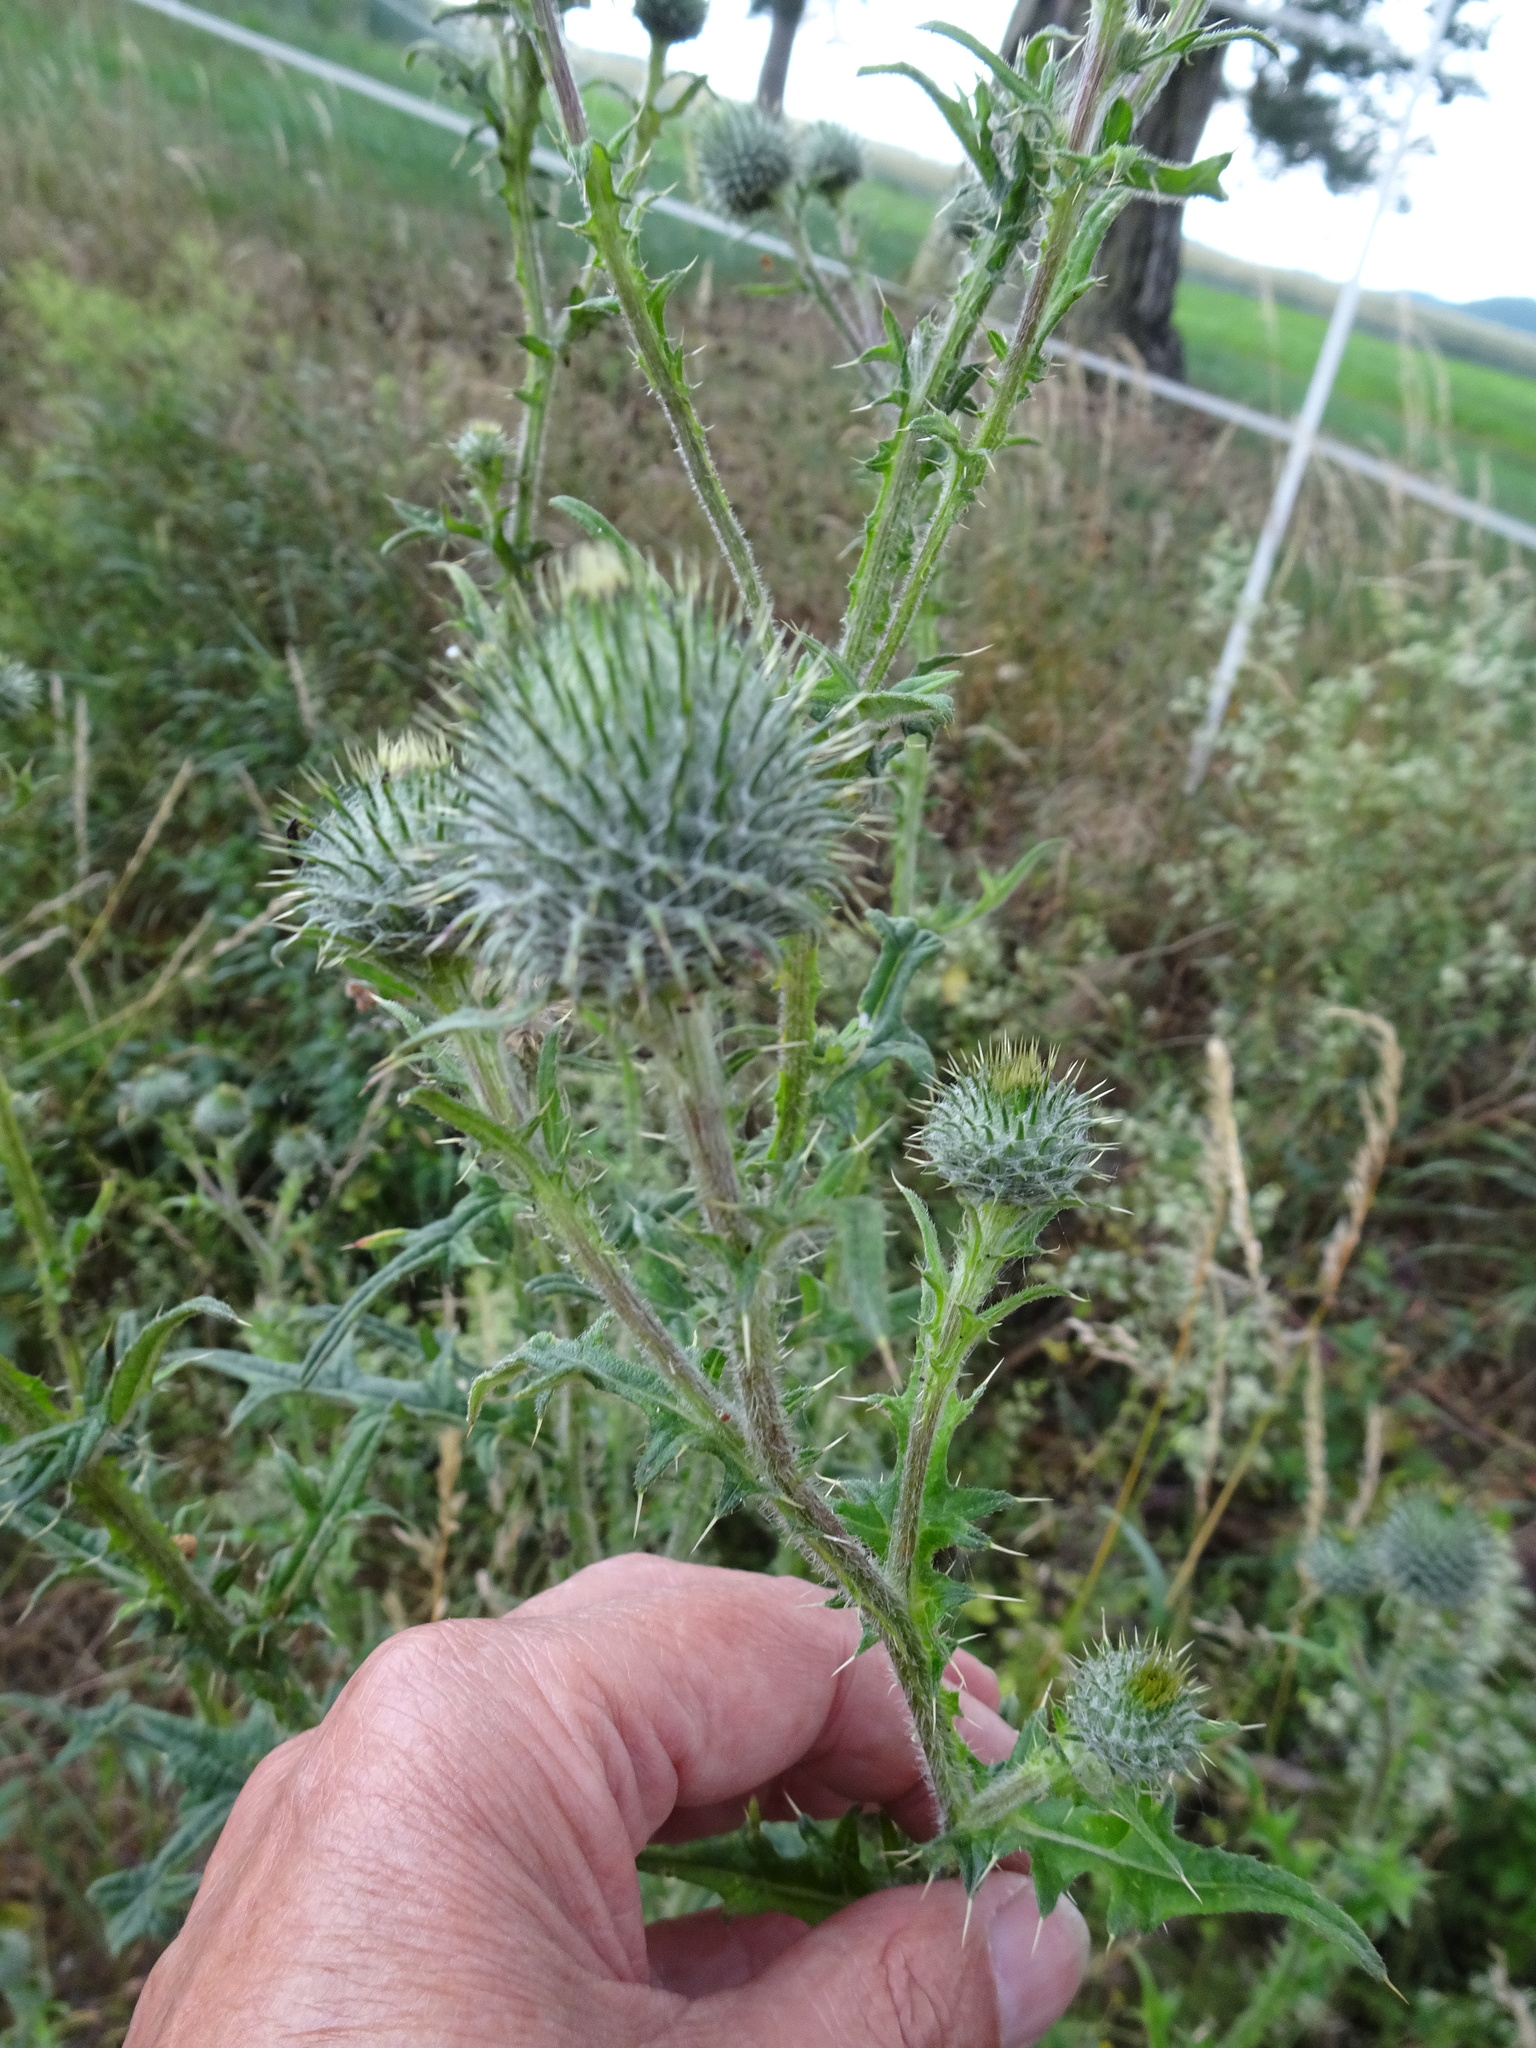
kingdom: Plantae
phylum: Tracheophyta
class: Magnoliopsida
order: Asterales
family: Asteraceae
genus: Cirsium
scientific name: Cirsium vulgare
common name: Bull thistle
